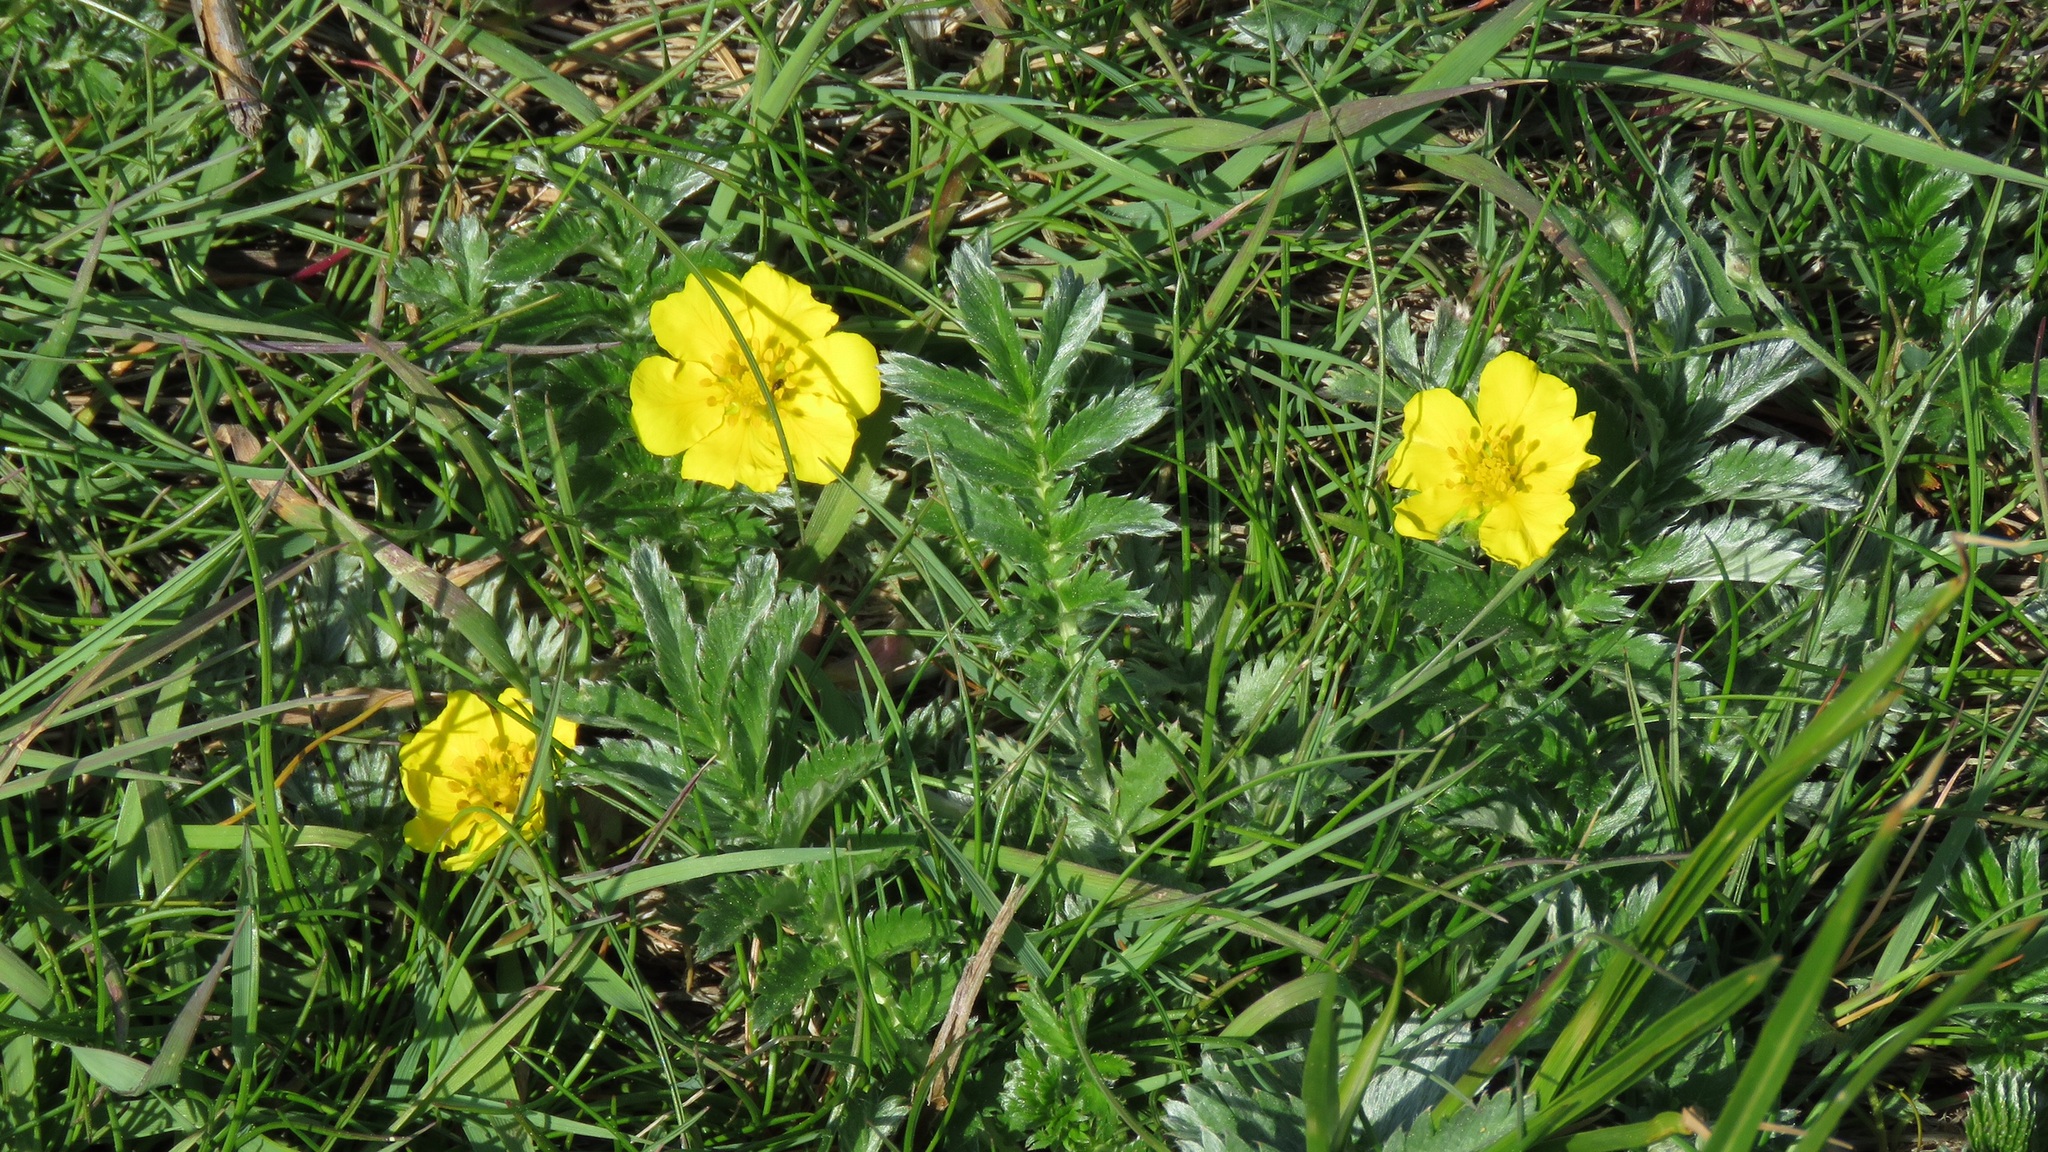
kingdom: Plantae
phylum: Tracheophyta
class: Magnoliopsida
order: Rosales
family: Rosaceae
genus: Argentina
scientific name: Argentina anserina
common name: Common silverweed
